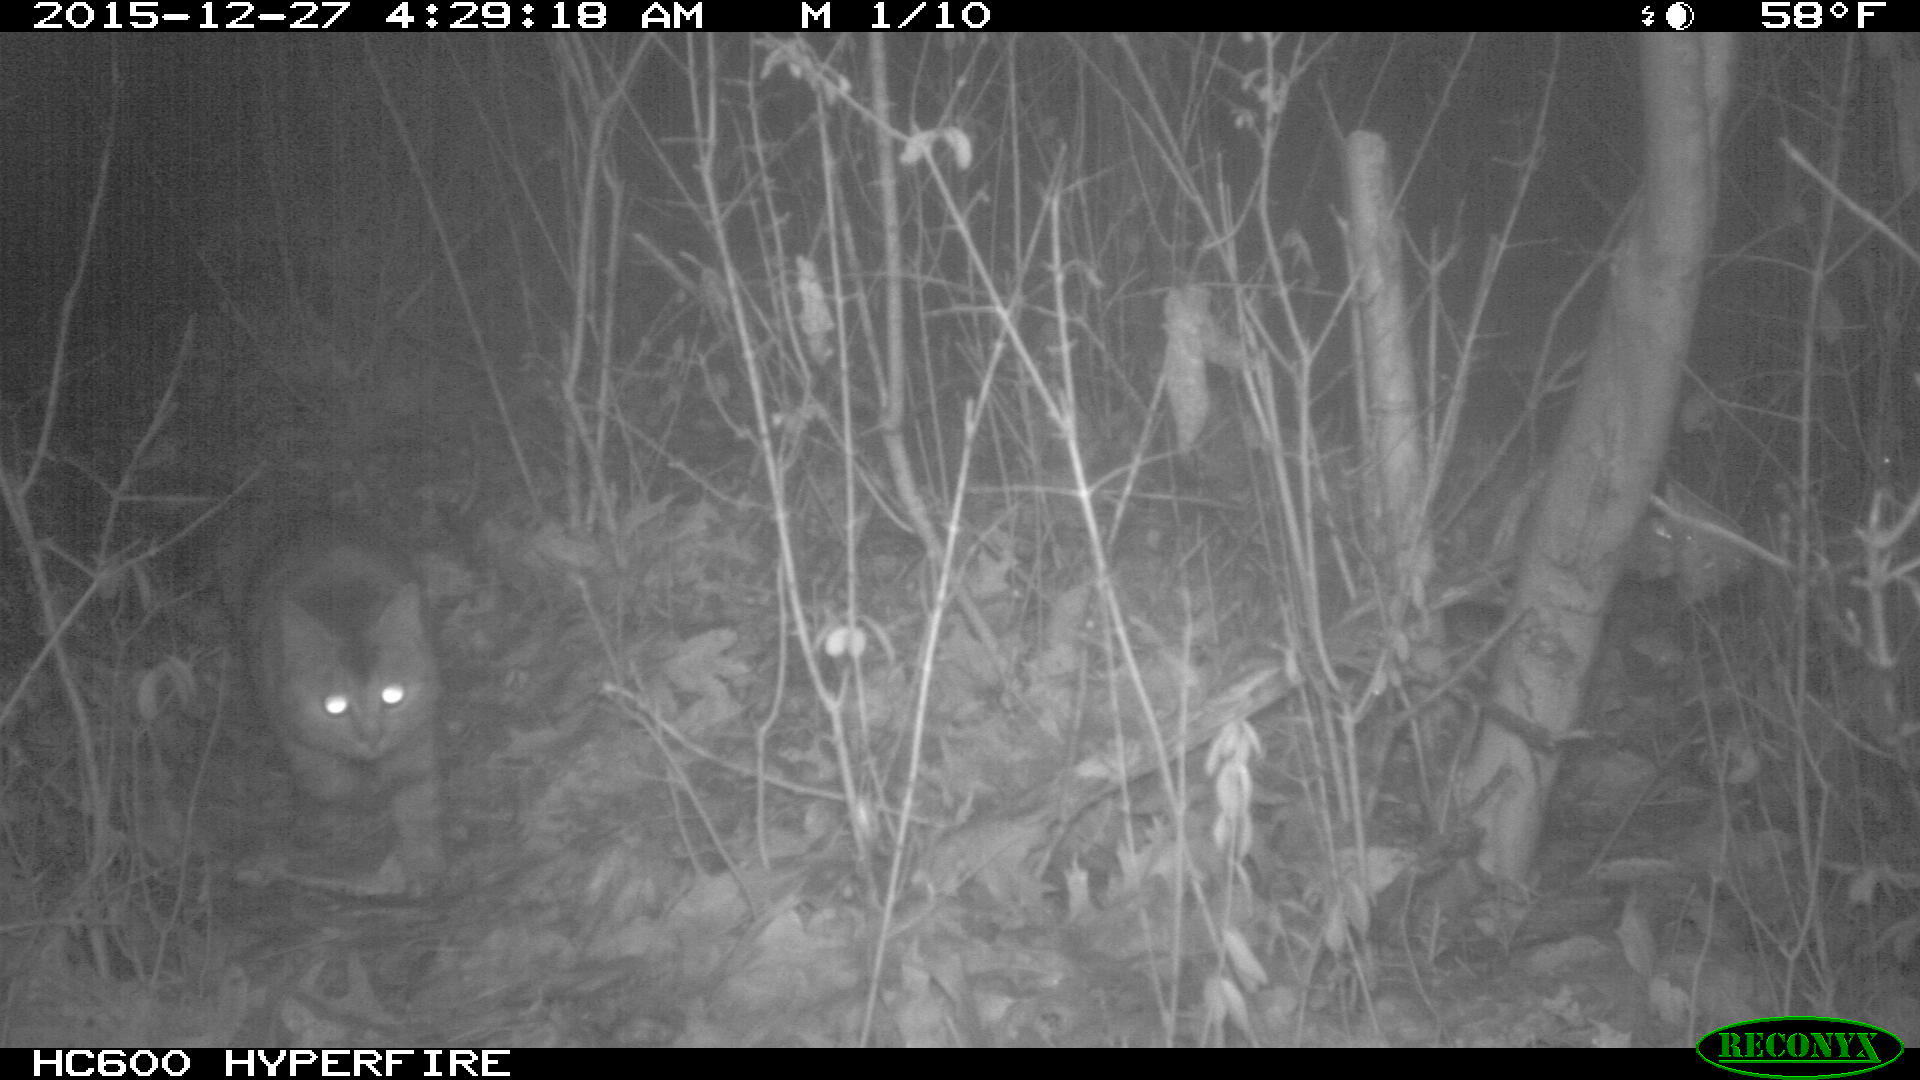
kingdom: Animalia
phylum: Chordata
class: Mammalia
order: Carnivora
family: Felidae
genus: Felis
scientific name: Felis catus
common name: Domestic cat
